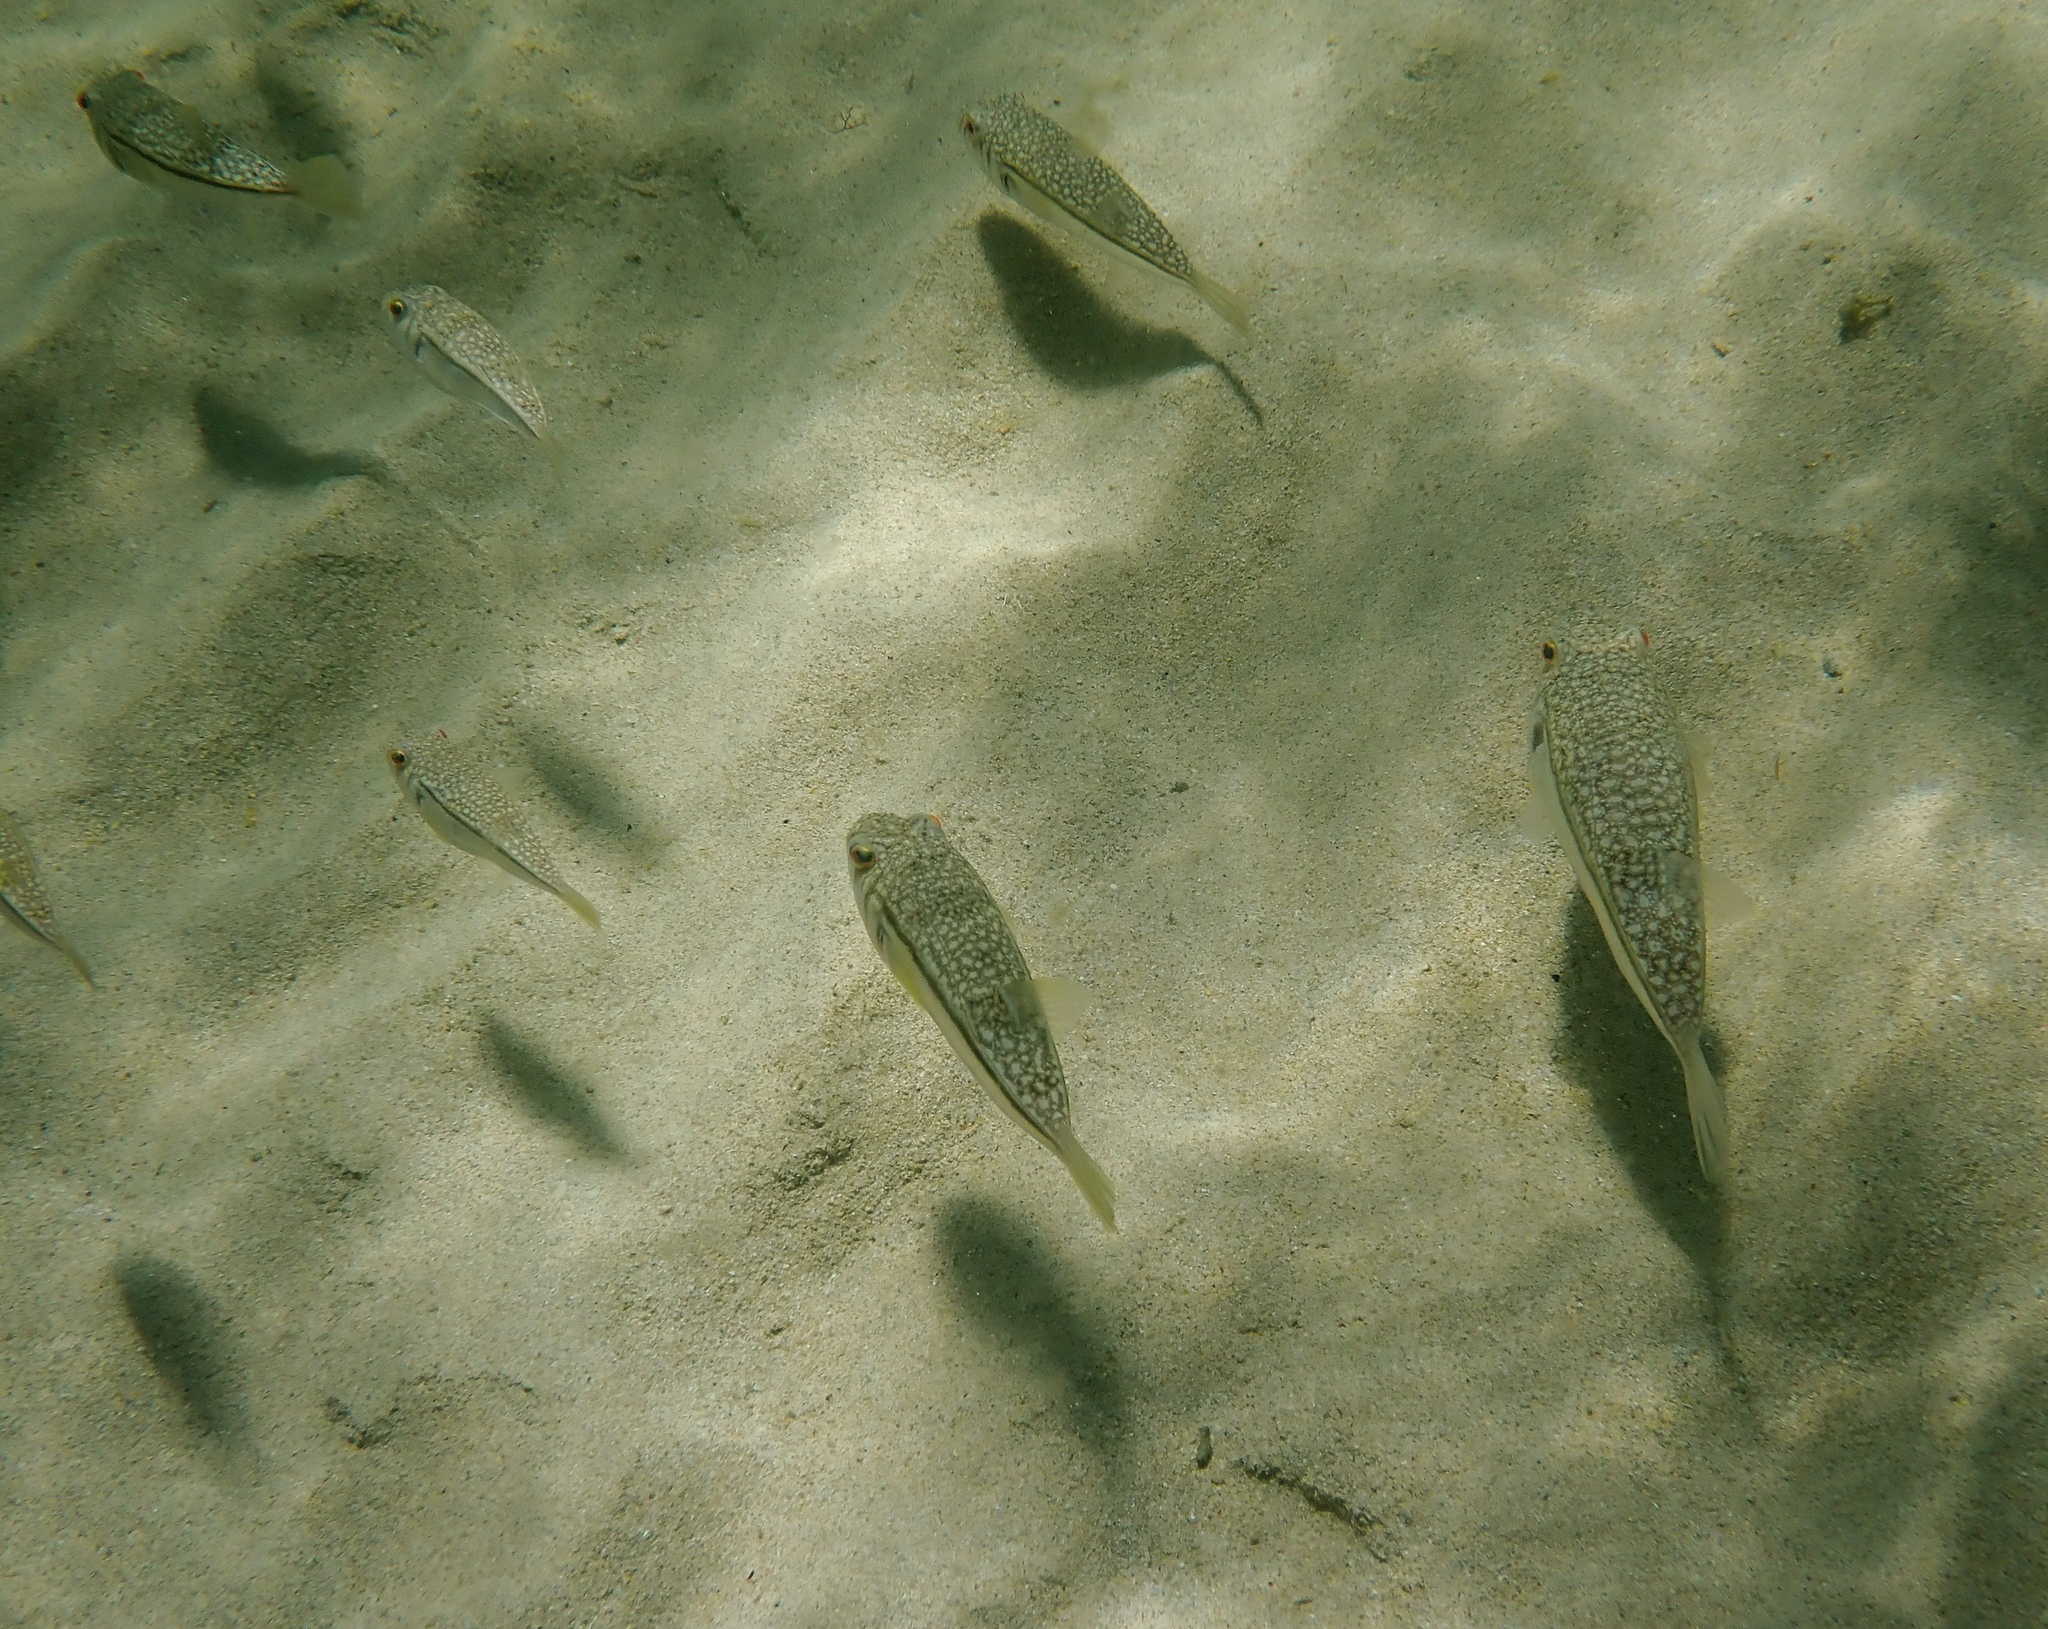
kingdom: Animalia
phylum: Chordata
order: Tetraodontiformes
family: Tetraodontidae
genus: Torquigener
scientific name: Torquigener pleurogramma
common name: Banded toadfish
